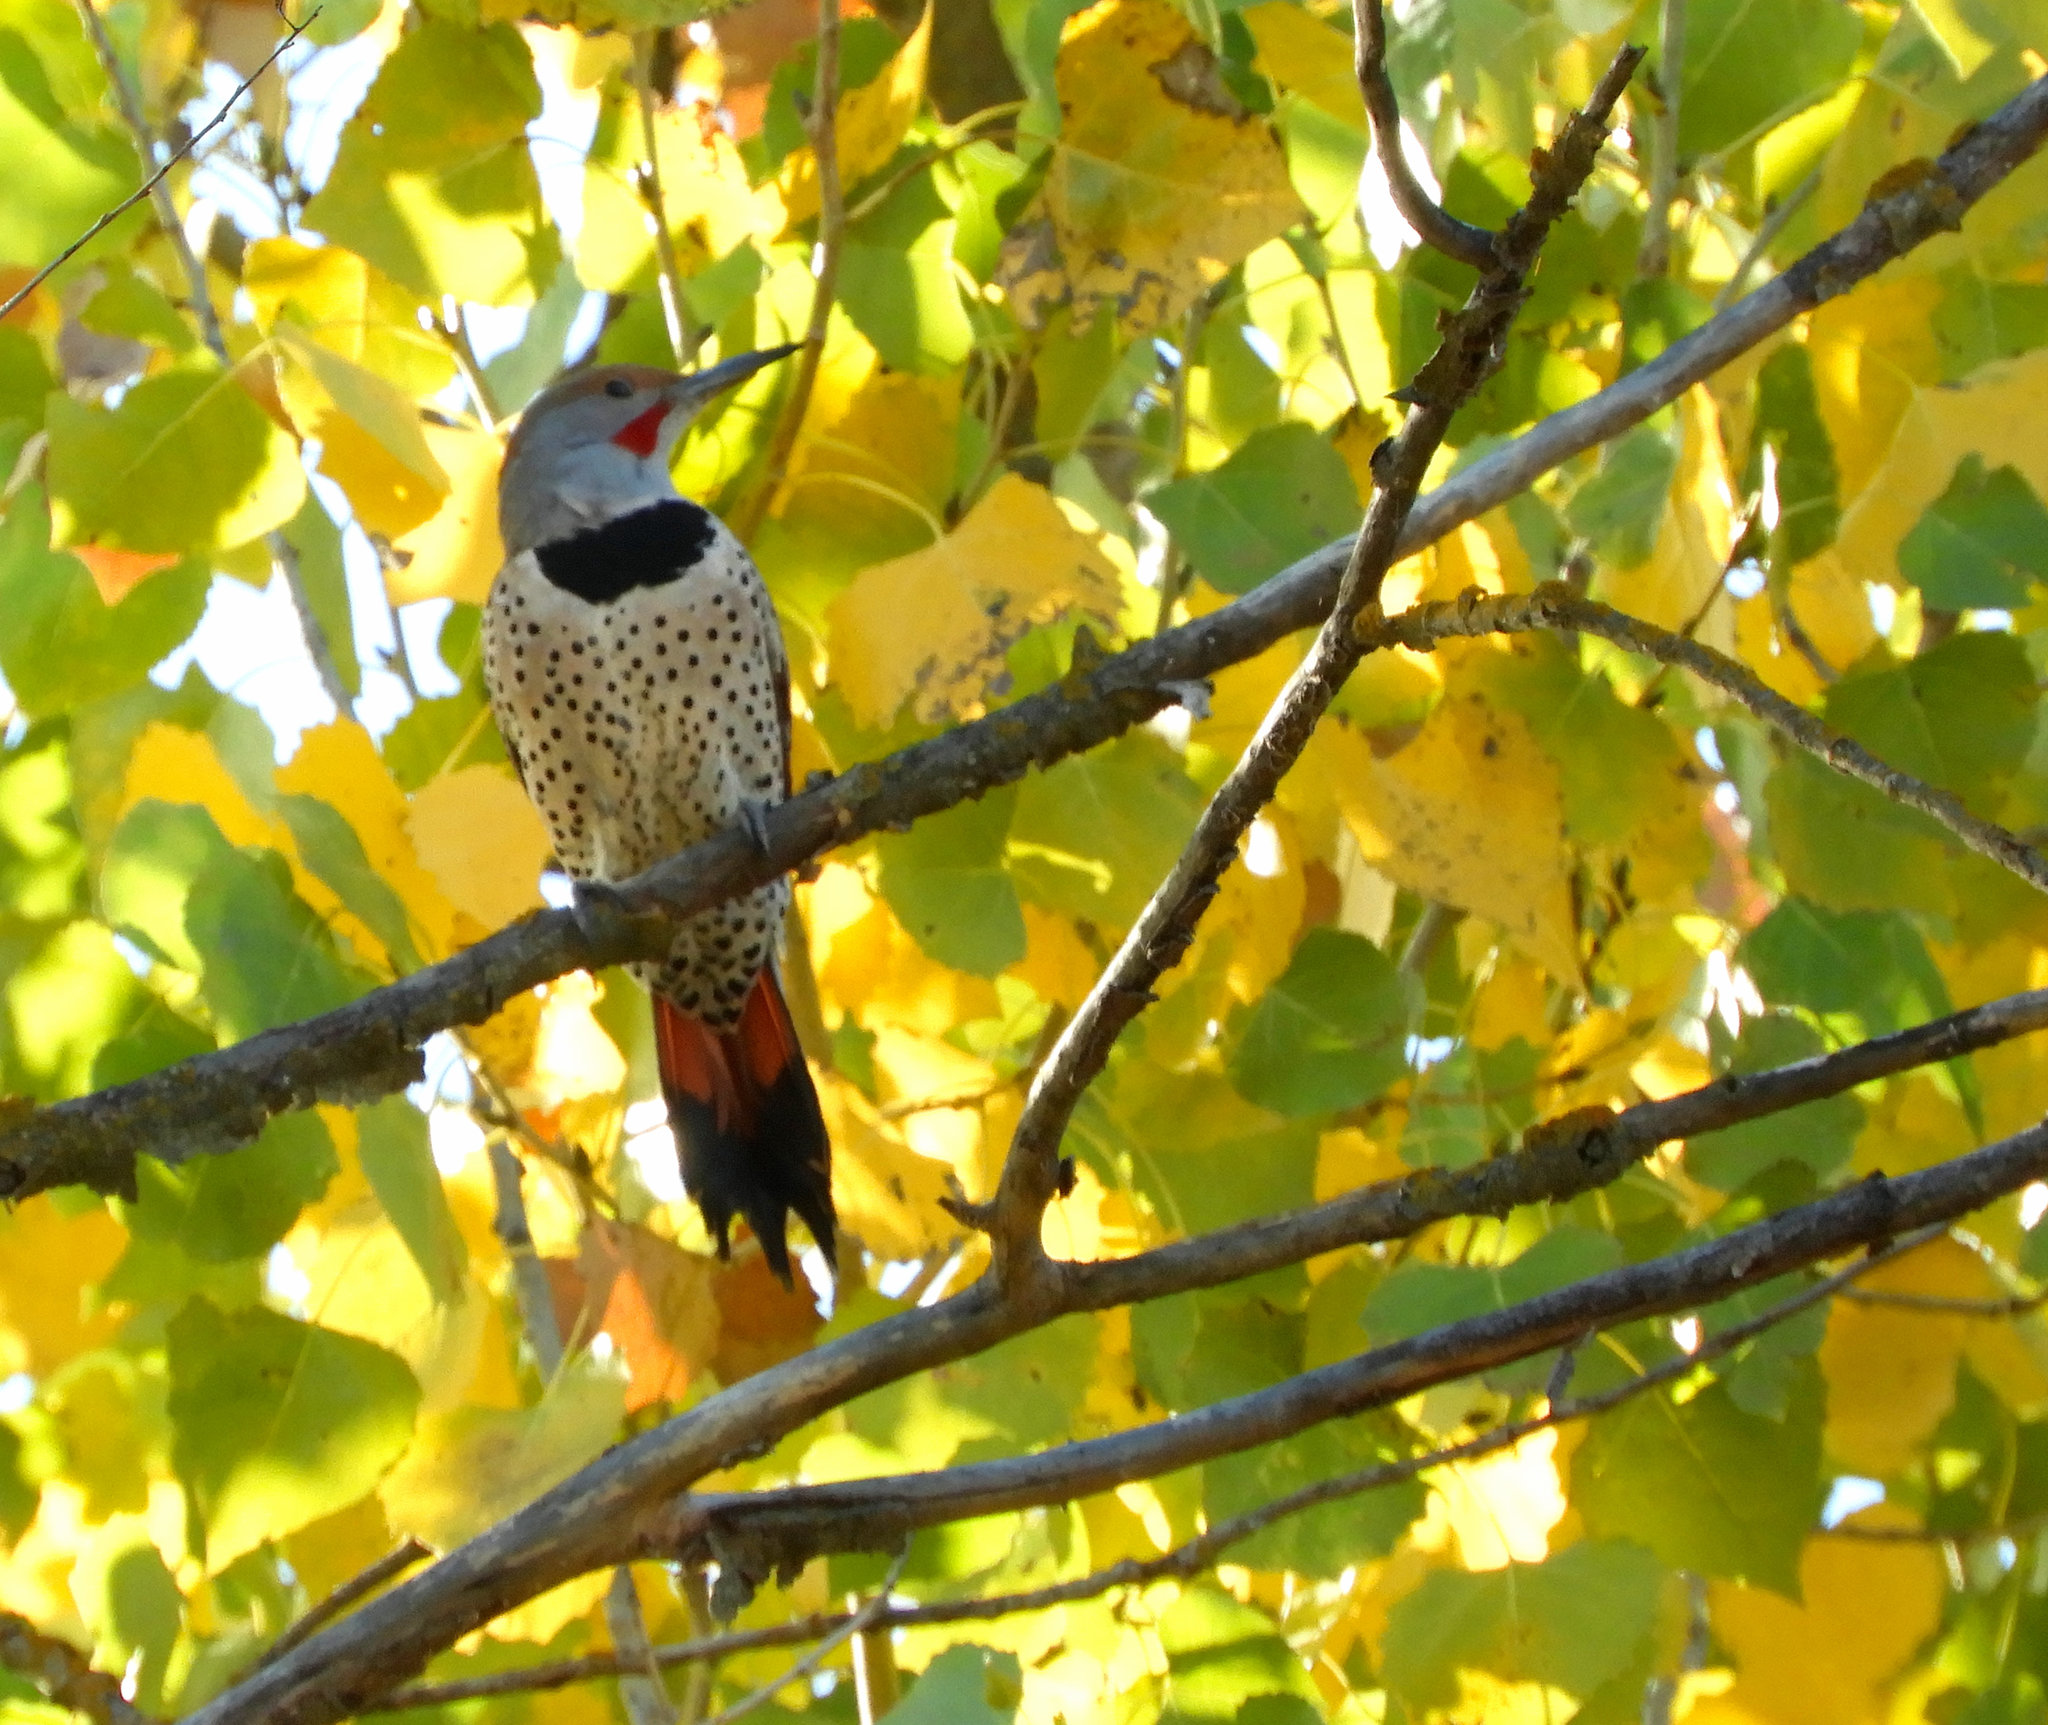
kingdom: Animalia
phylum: Chordata
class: Aves
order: Piciformes
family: Picidae
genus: Colaptes
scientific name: Colaptes auratus
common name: Northern flicker
